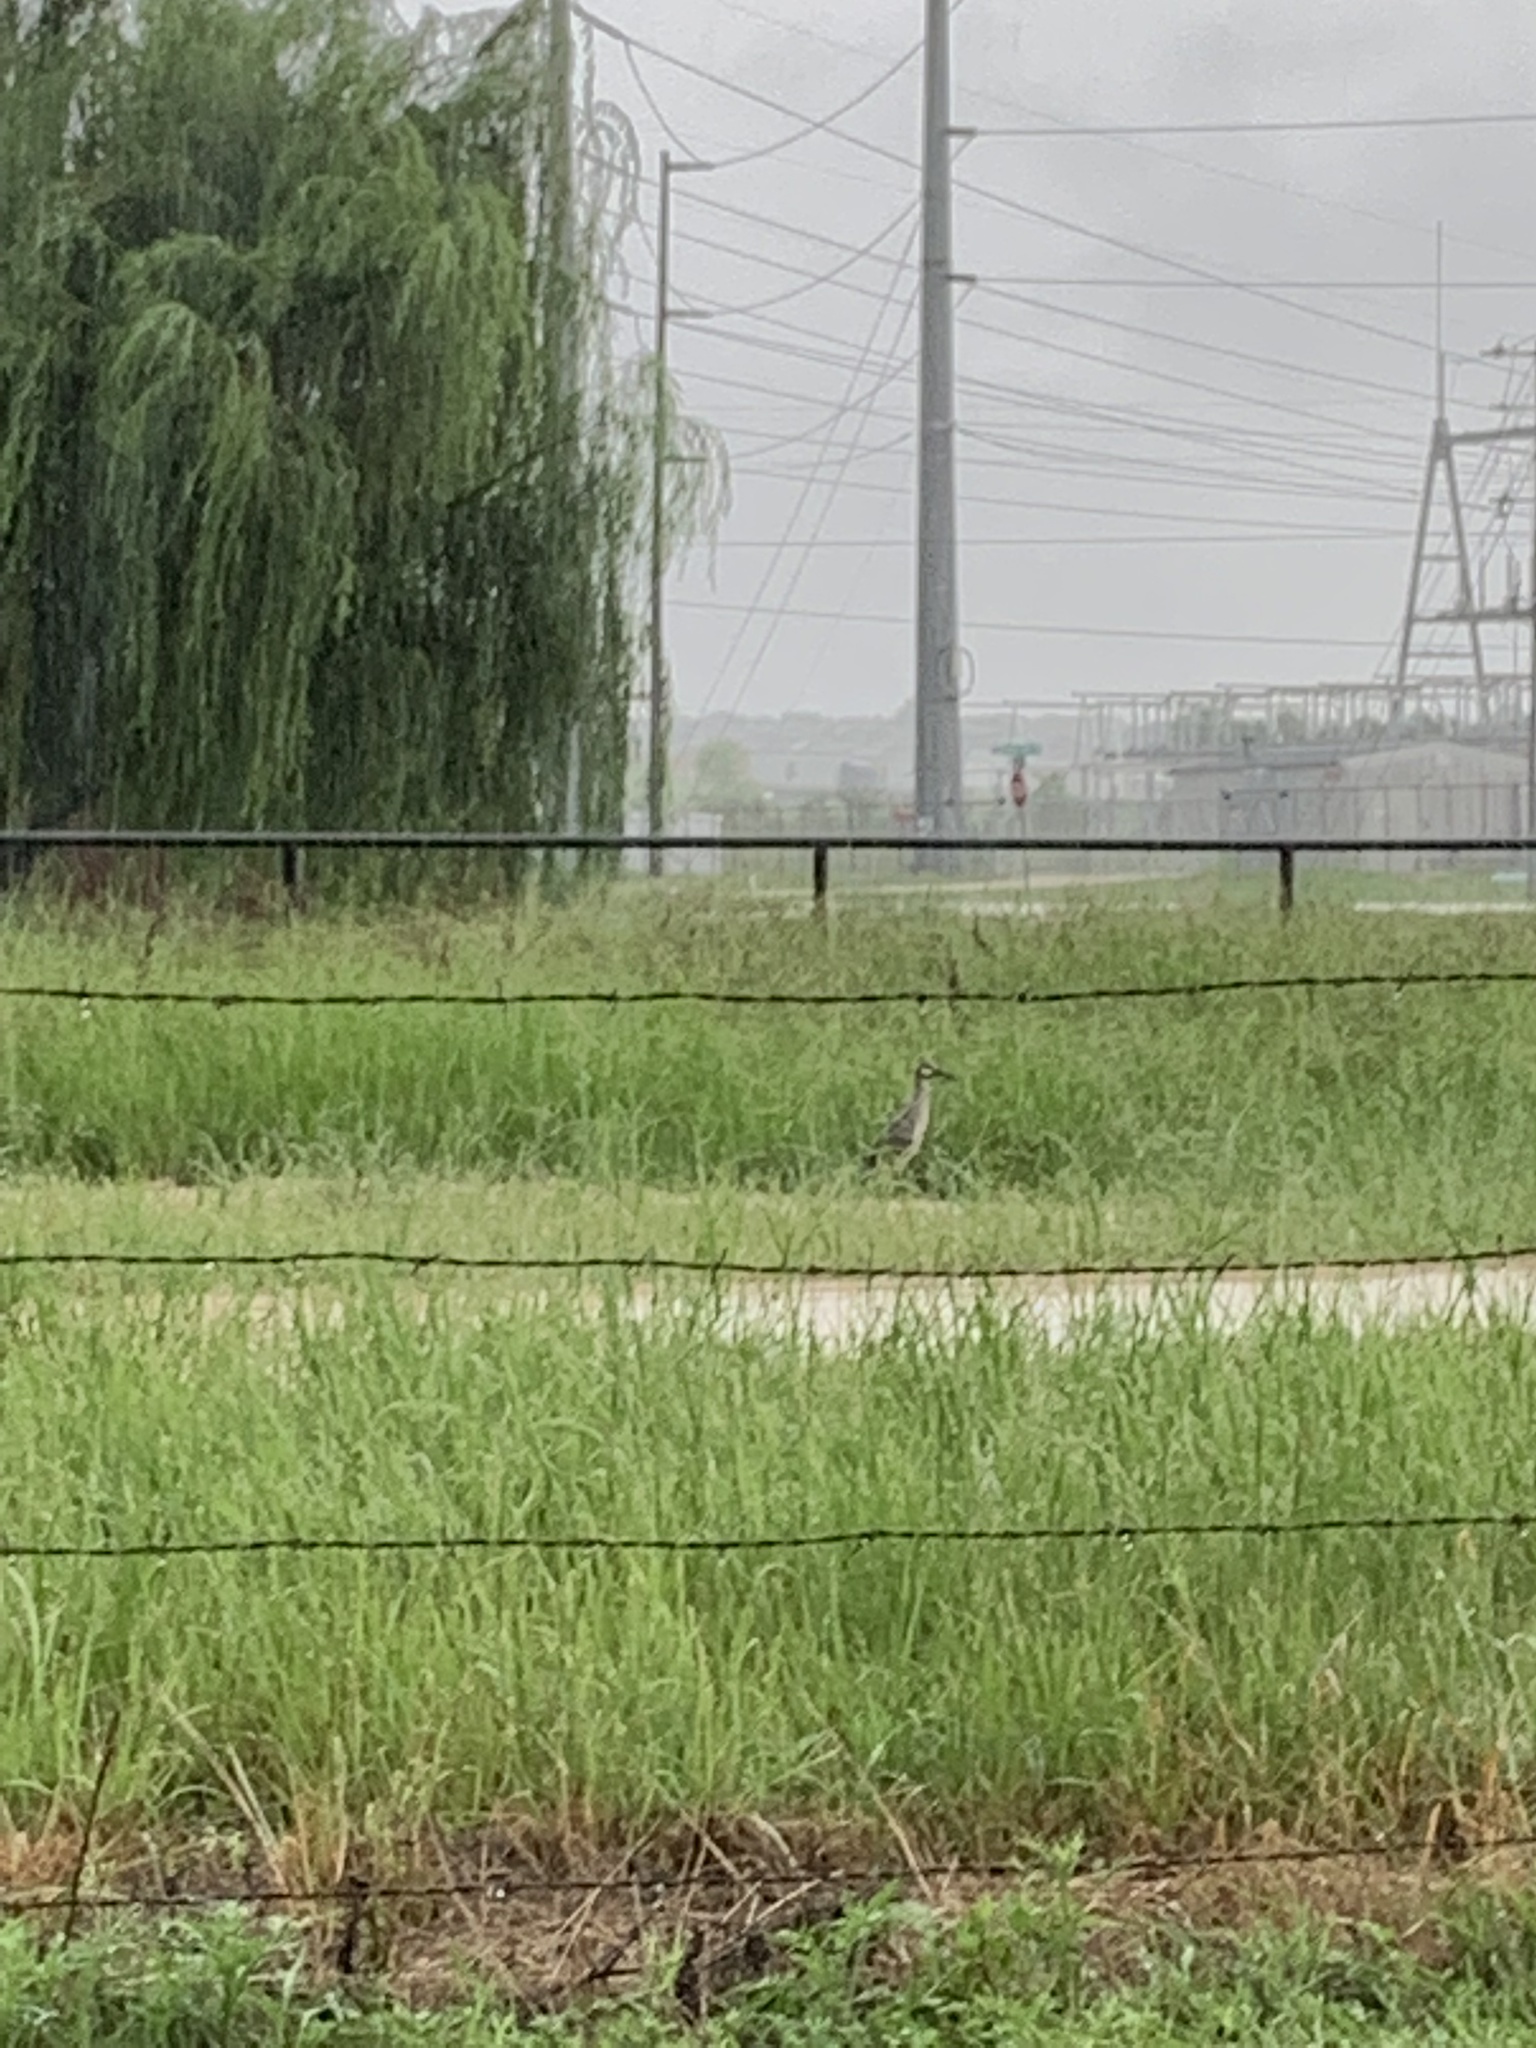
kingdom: Animalia
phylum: Chordata
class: Aves
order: Pelecaniformes
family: Ardeidae
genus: Nyctanassa
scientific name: Nyctanassa violacea
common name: Yellow-crowned night heron
